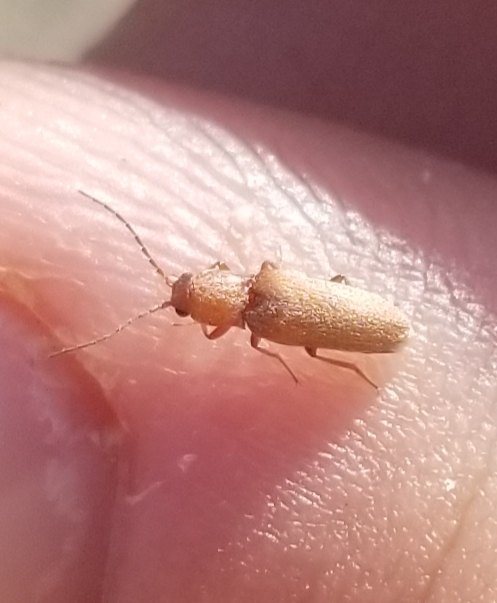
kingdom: Animalia
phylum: Arthropoda
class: Insecta
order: Coleoptera
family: Elateridae
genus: Aphricus
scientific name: Aphricus
